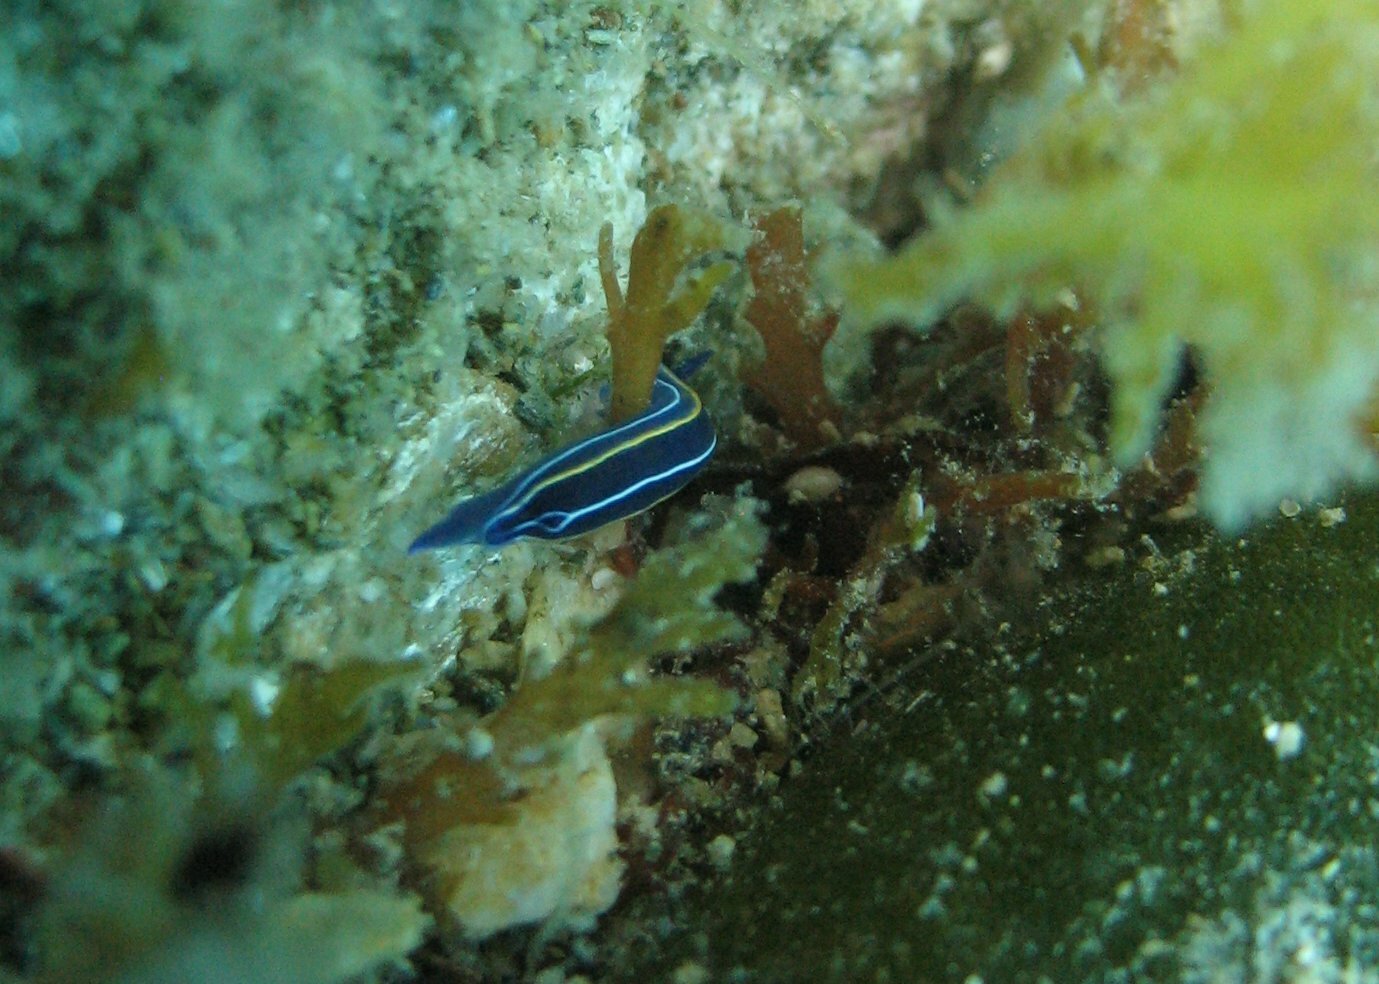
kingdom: Animalia
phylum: Mollusca
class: Gastropoda
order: Nudibranchia
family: Chromodorididae
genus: Felimare
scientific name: Felimare orsinii
